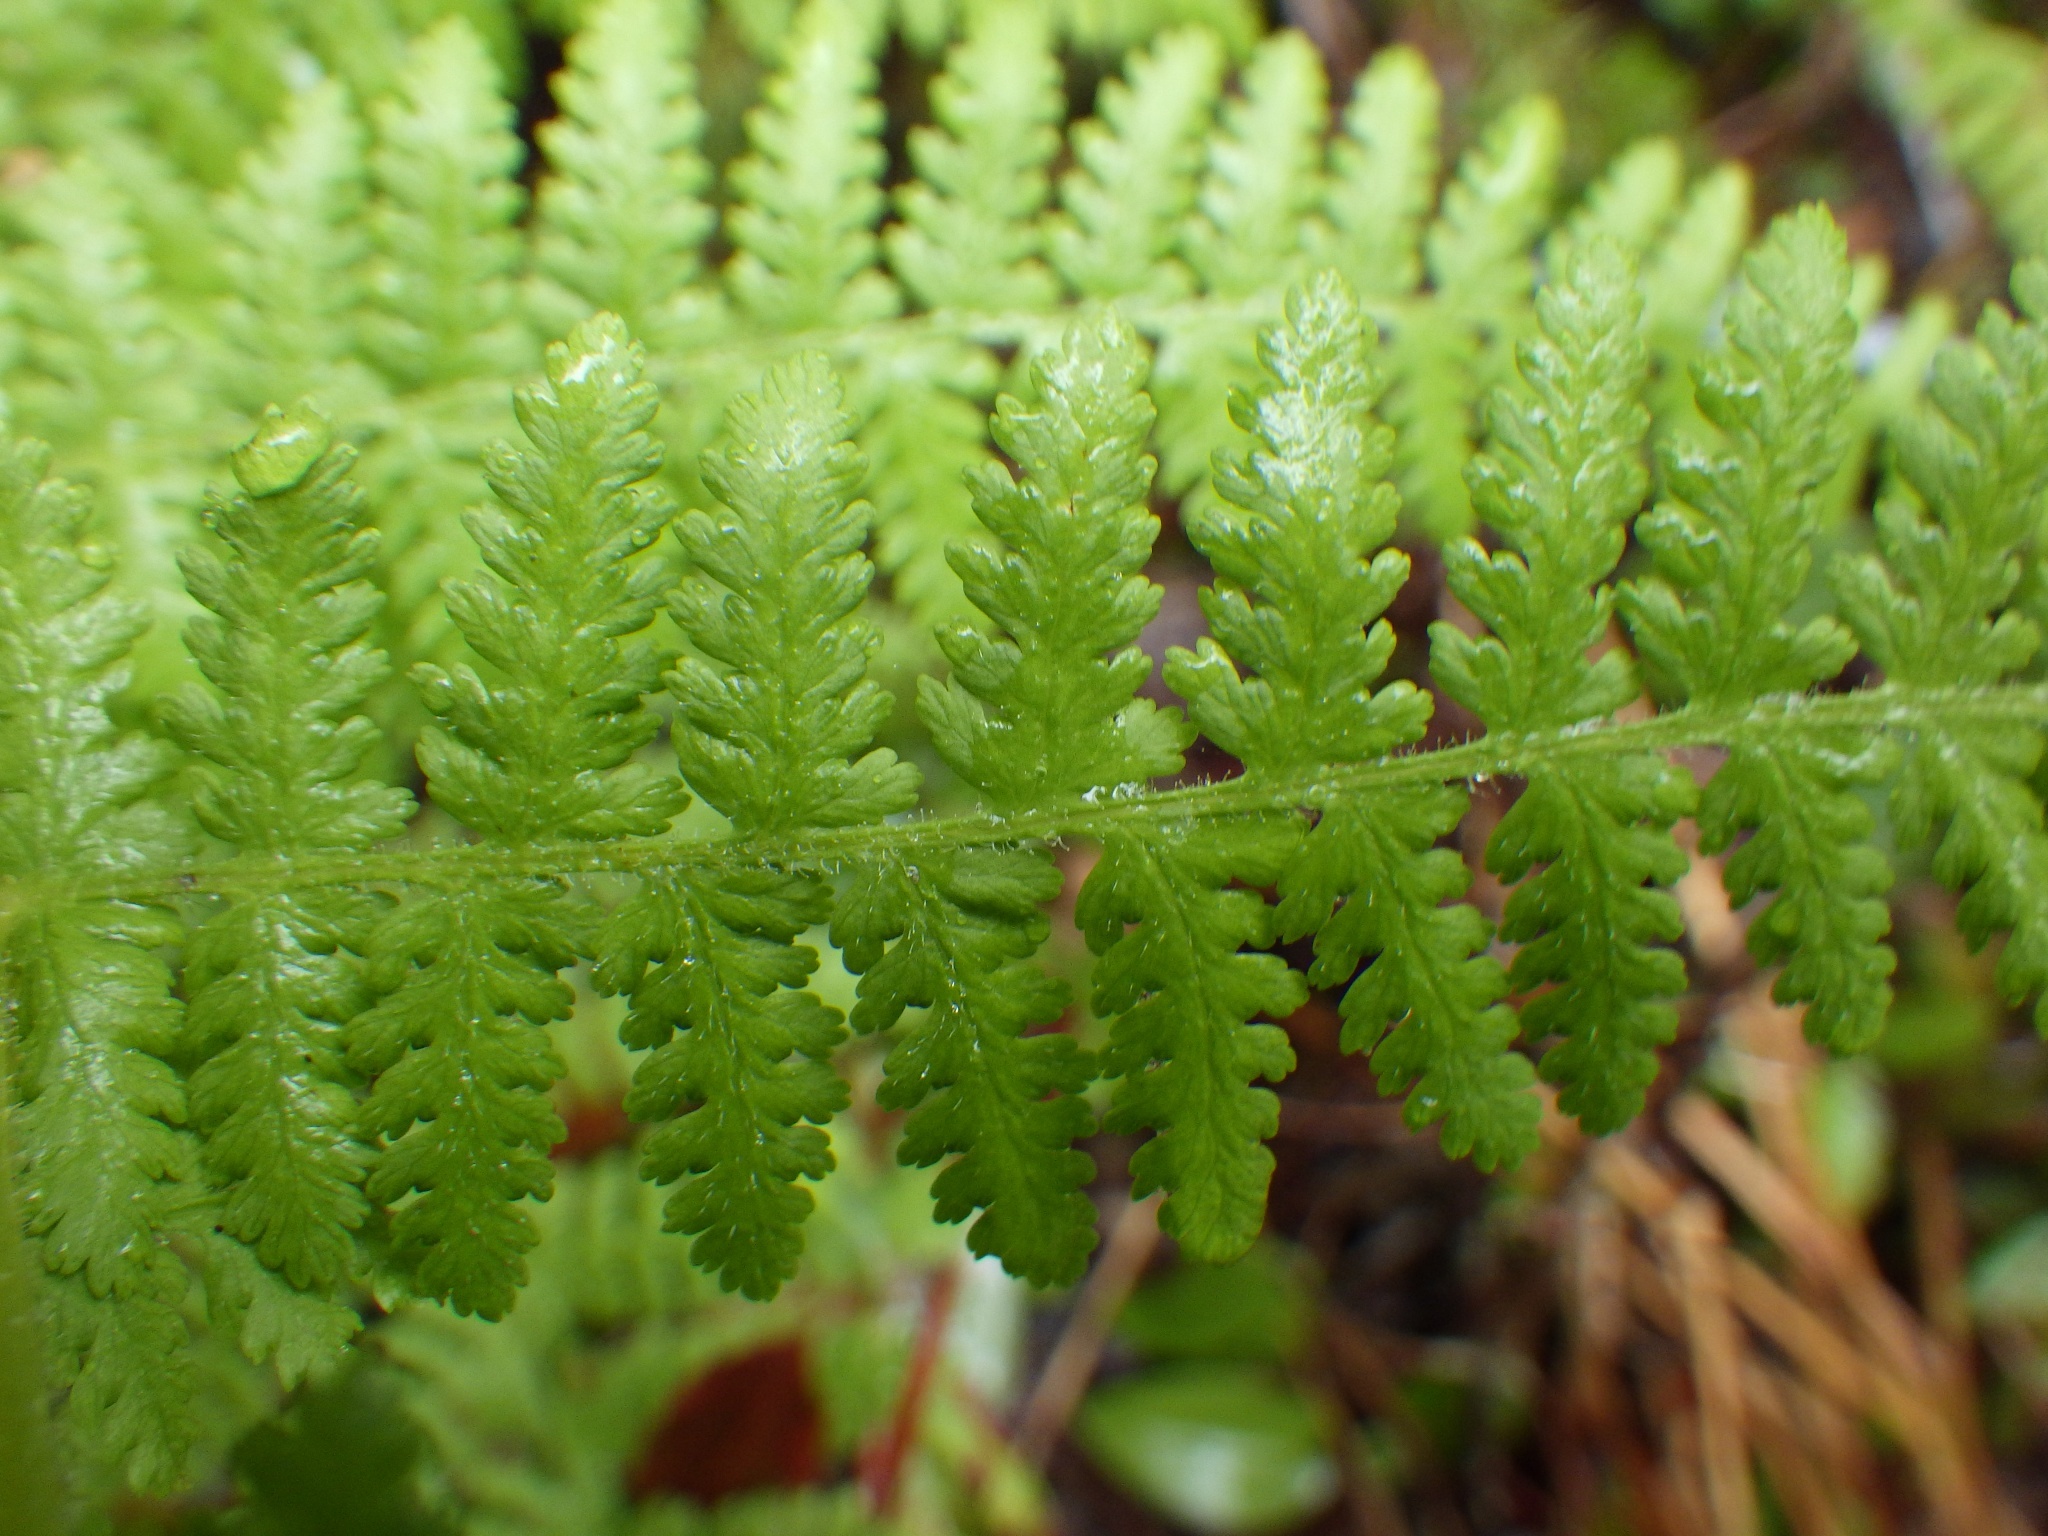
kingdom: Plantae
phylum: Tracheophyta
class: Polypodiopsida
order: Polypodiales
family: Dennstaedtiaceae
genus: Sitobolium
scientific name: Sitobolium punctilobum
